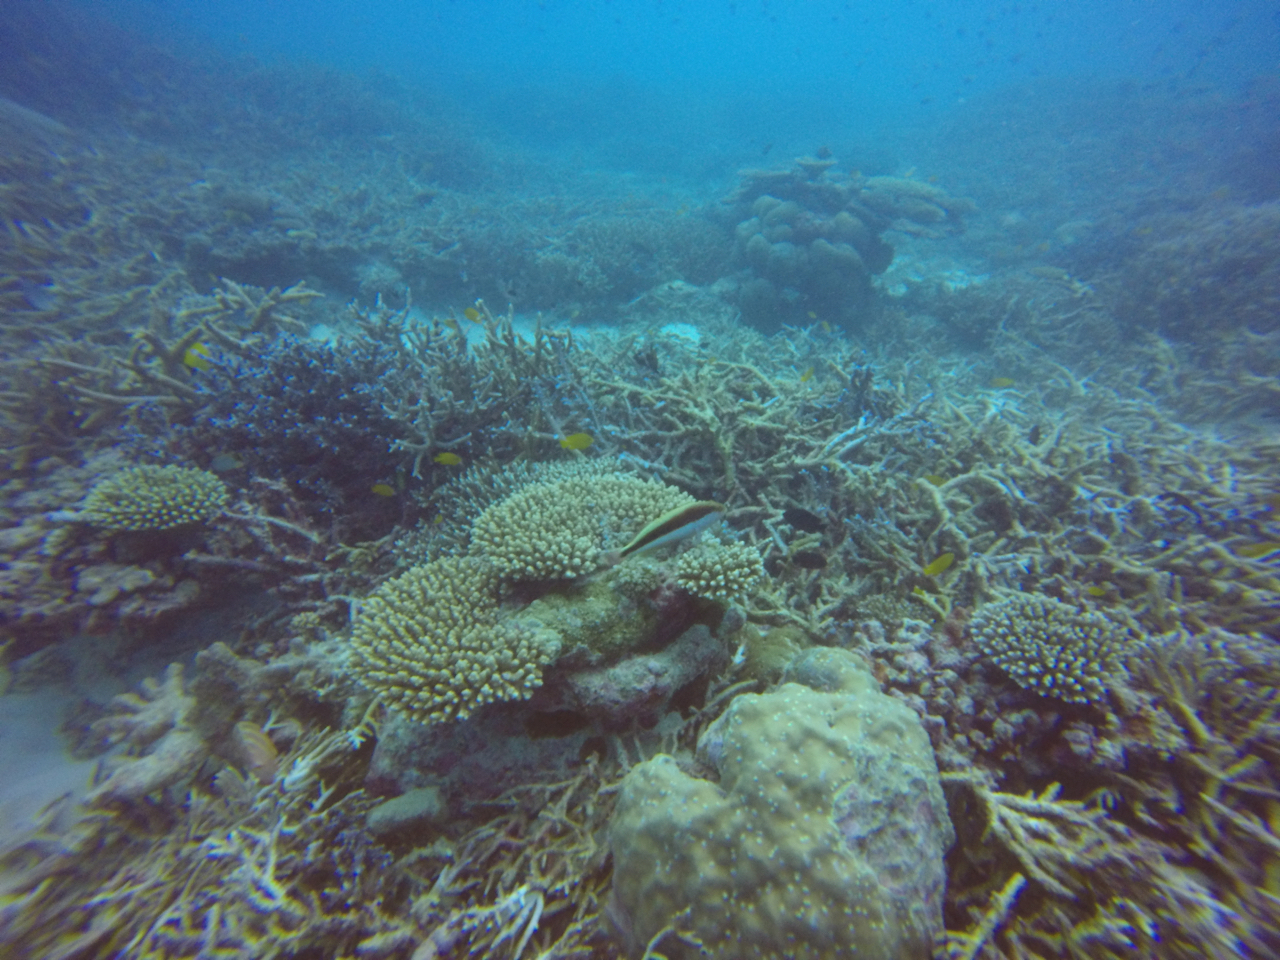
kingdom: Animalia
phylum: Chordata
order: Perciformes
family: Cirrhitidae
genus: Paracirrhites
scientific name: Paracirrhites forsteri
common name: Freckled hawkfish
